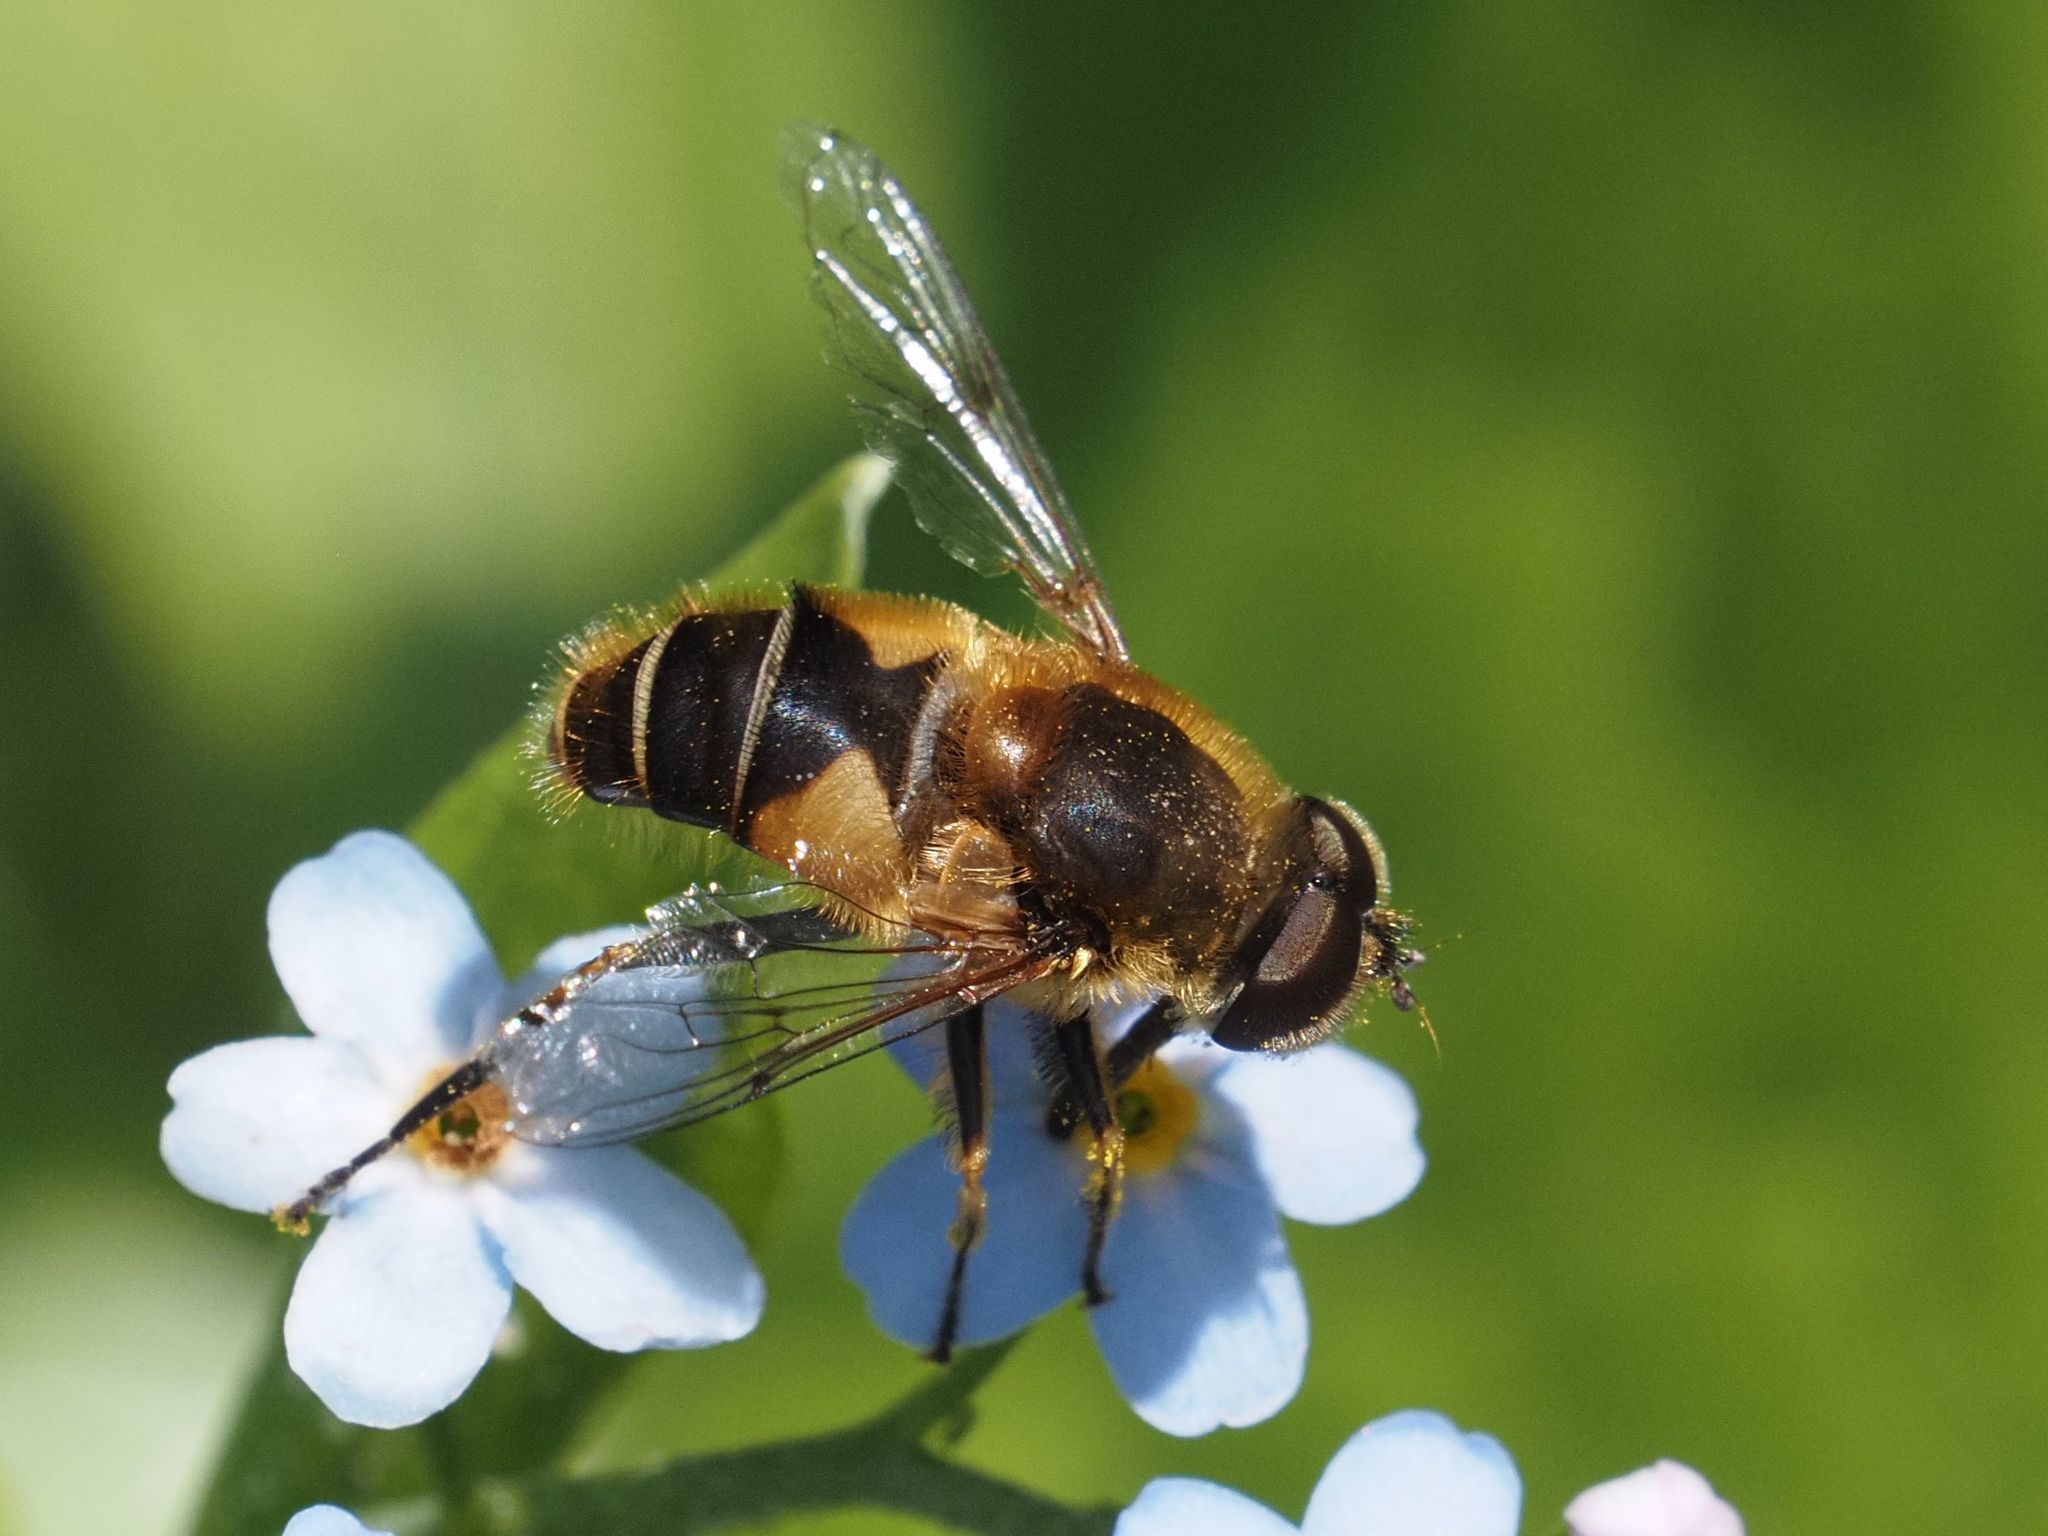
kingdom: Animalia
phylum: Arthropoda
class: Insecta
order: Diptera
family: Syrphidae
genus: Eristalis
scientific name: Eristalis jugorum
